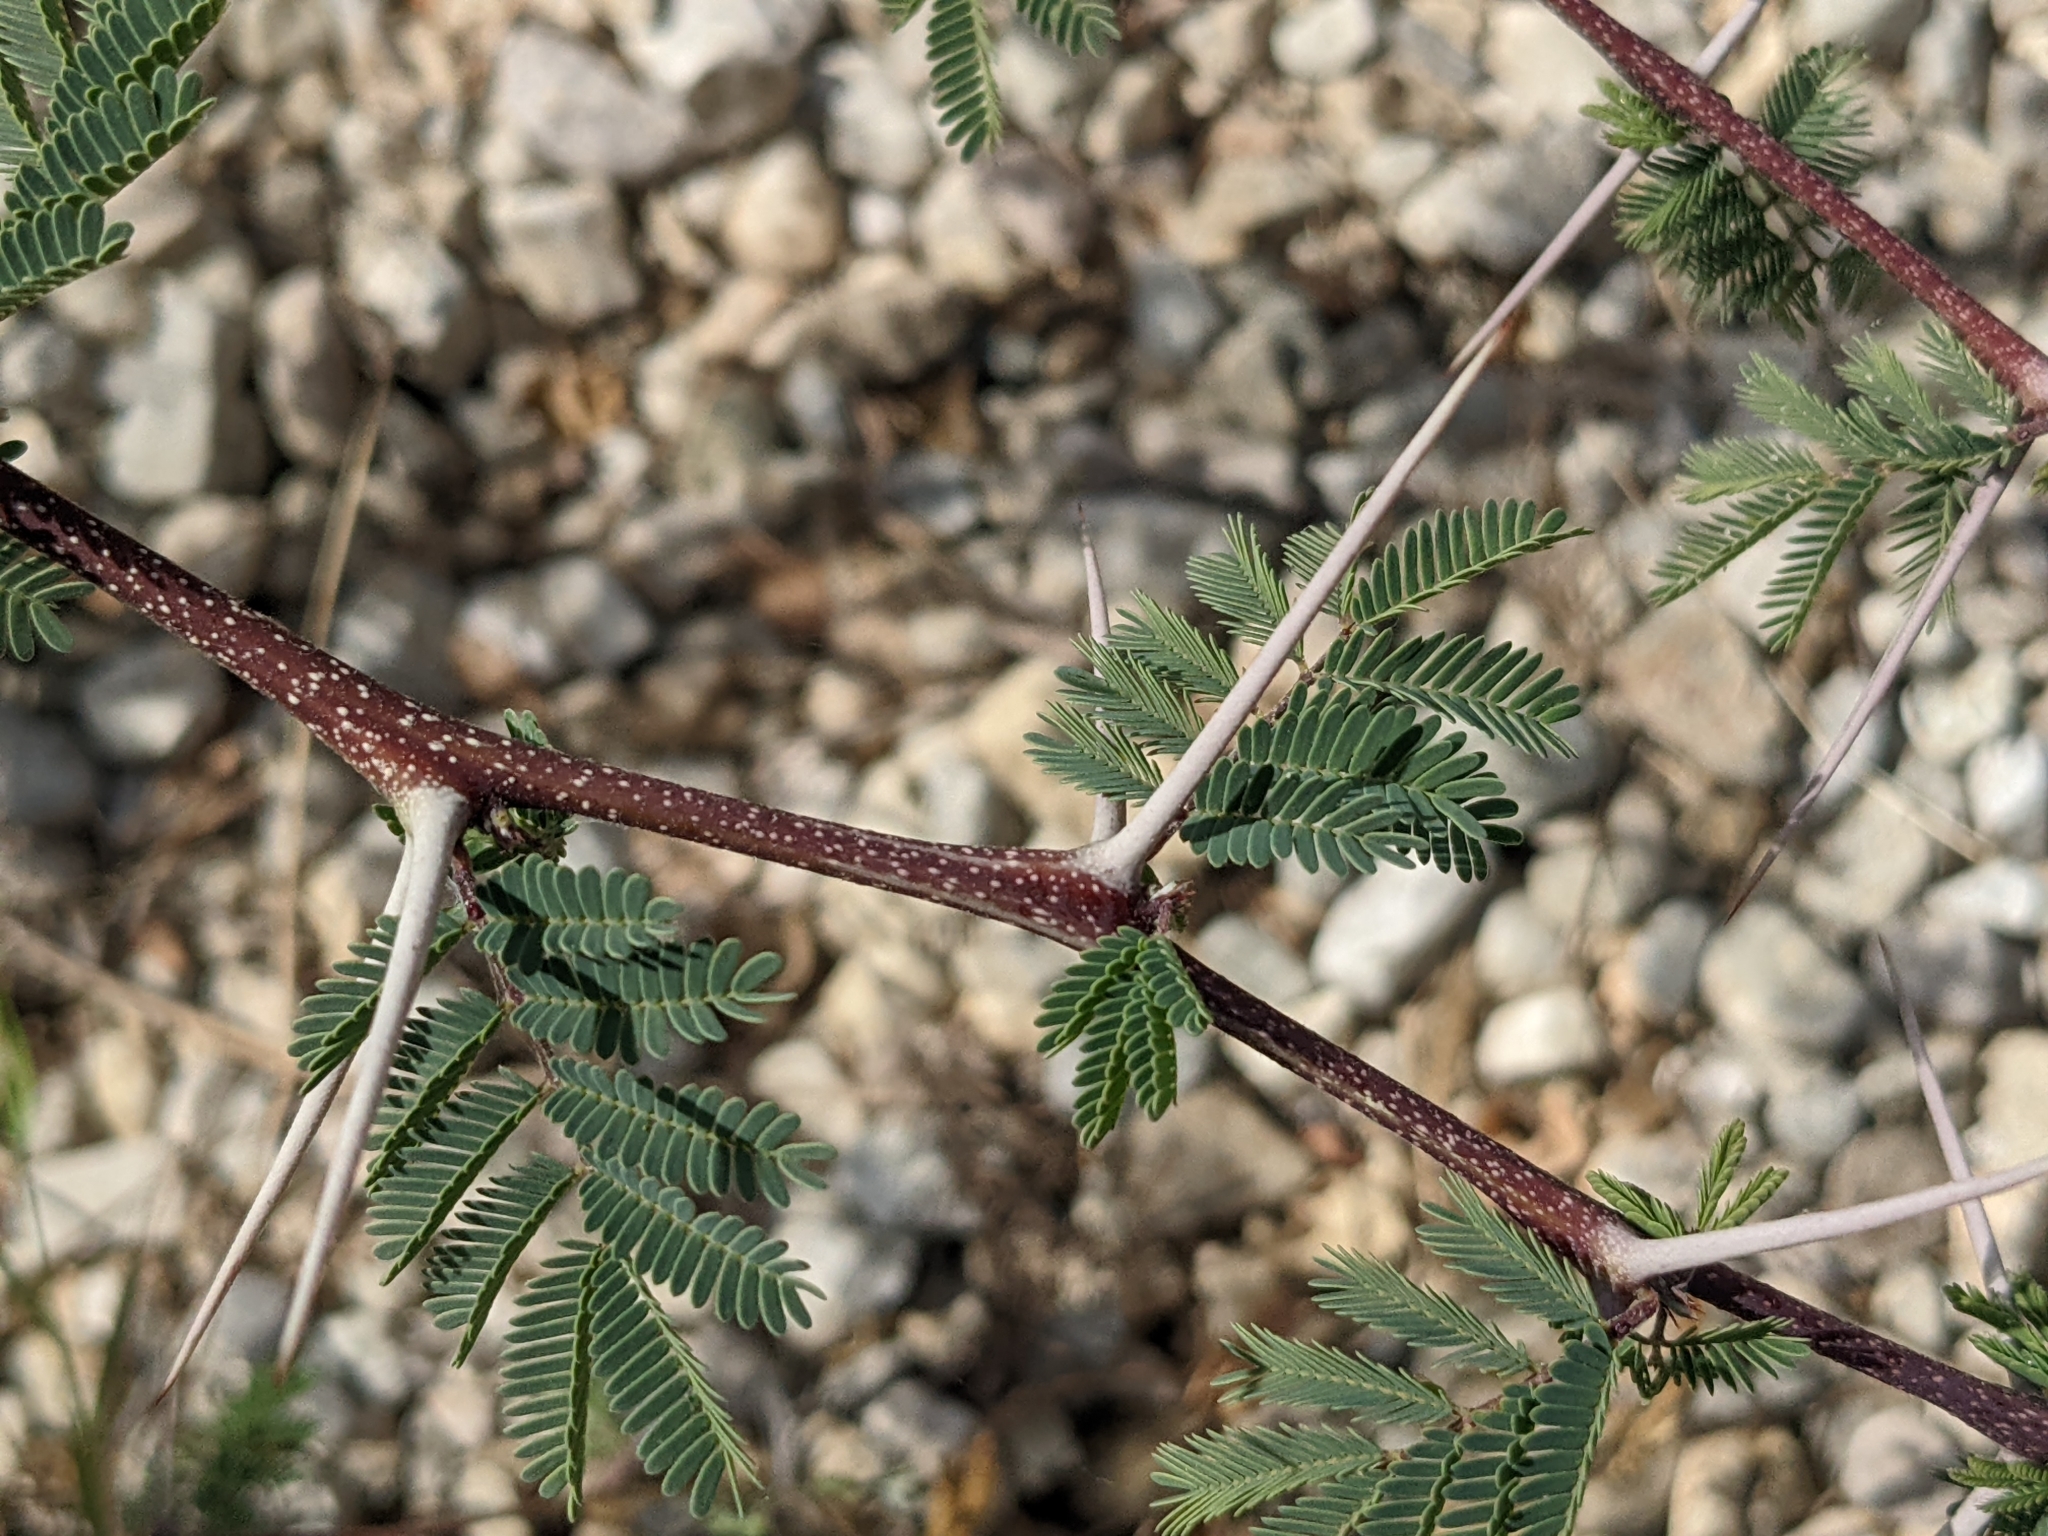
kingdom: Plantae
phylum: Tracheophyta
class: Magnoliopsida
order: Fabales
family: Fabaceae
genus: Vachellia
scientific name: Vachellia farnesiana
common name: Sweet acacia
